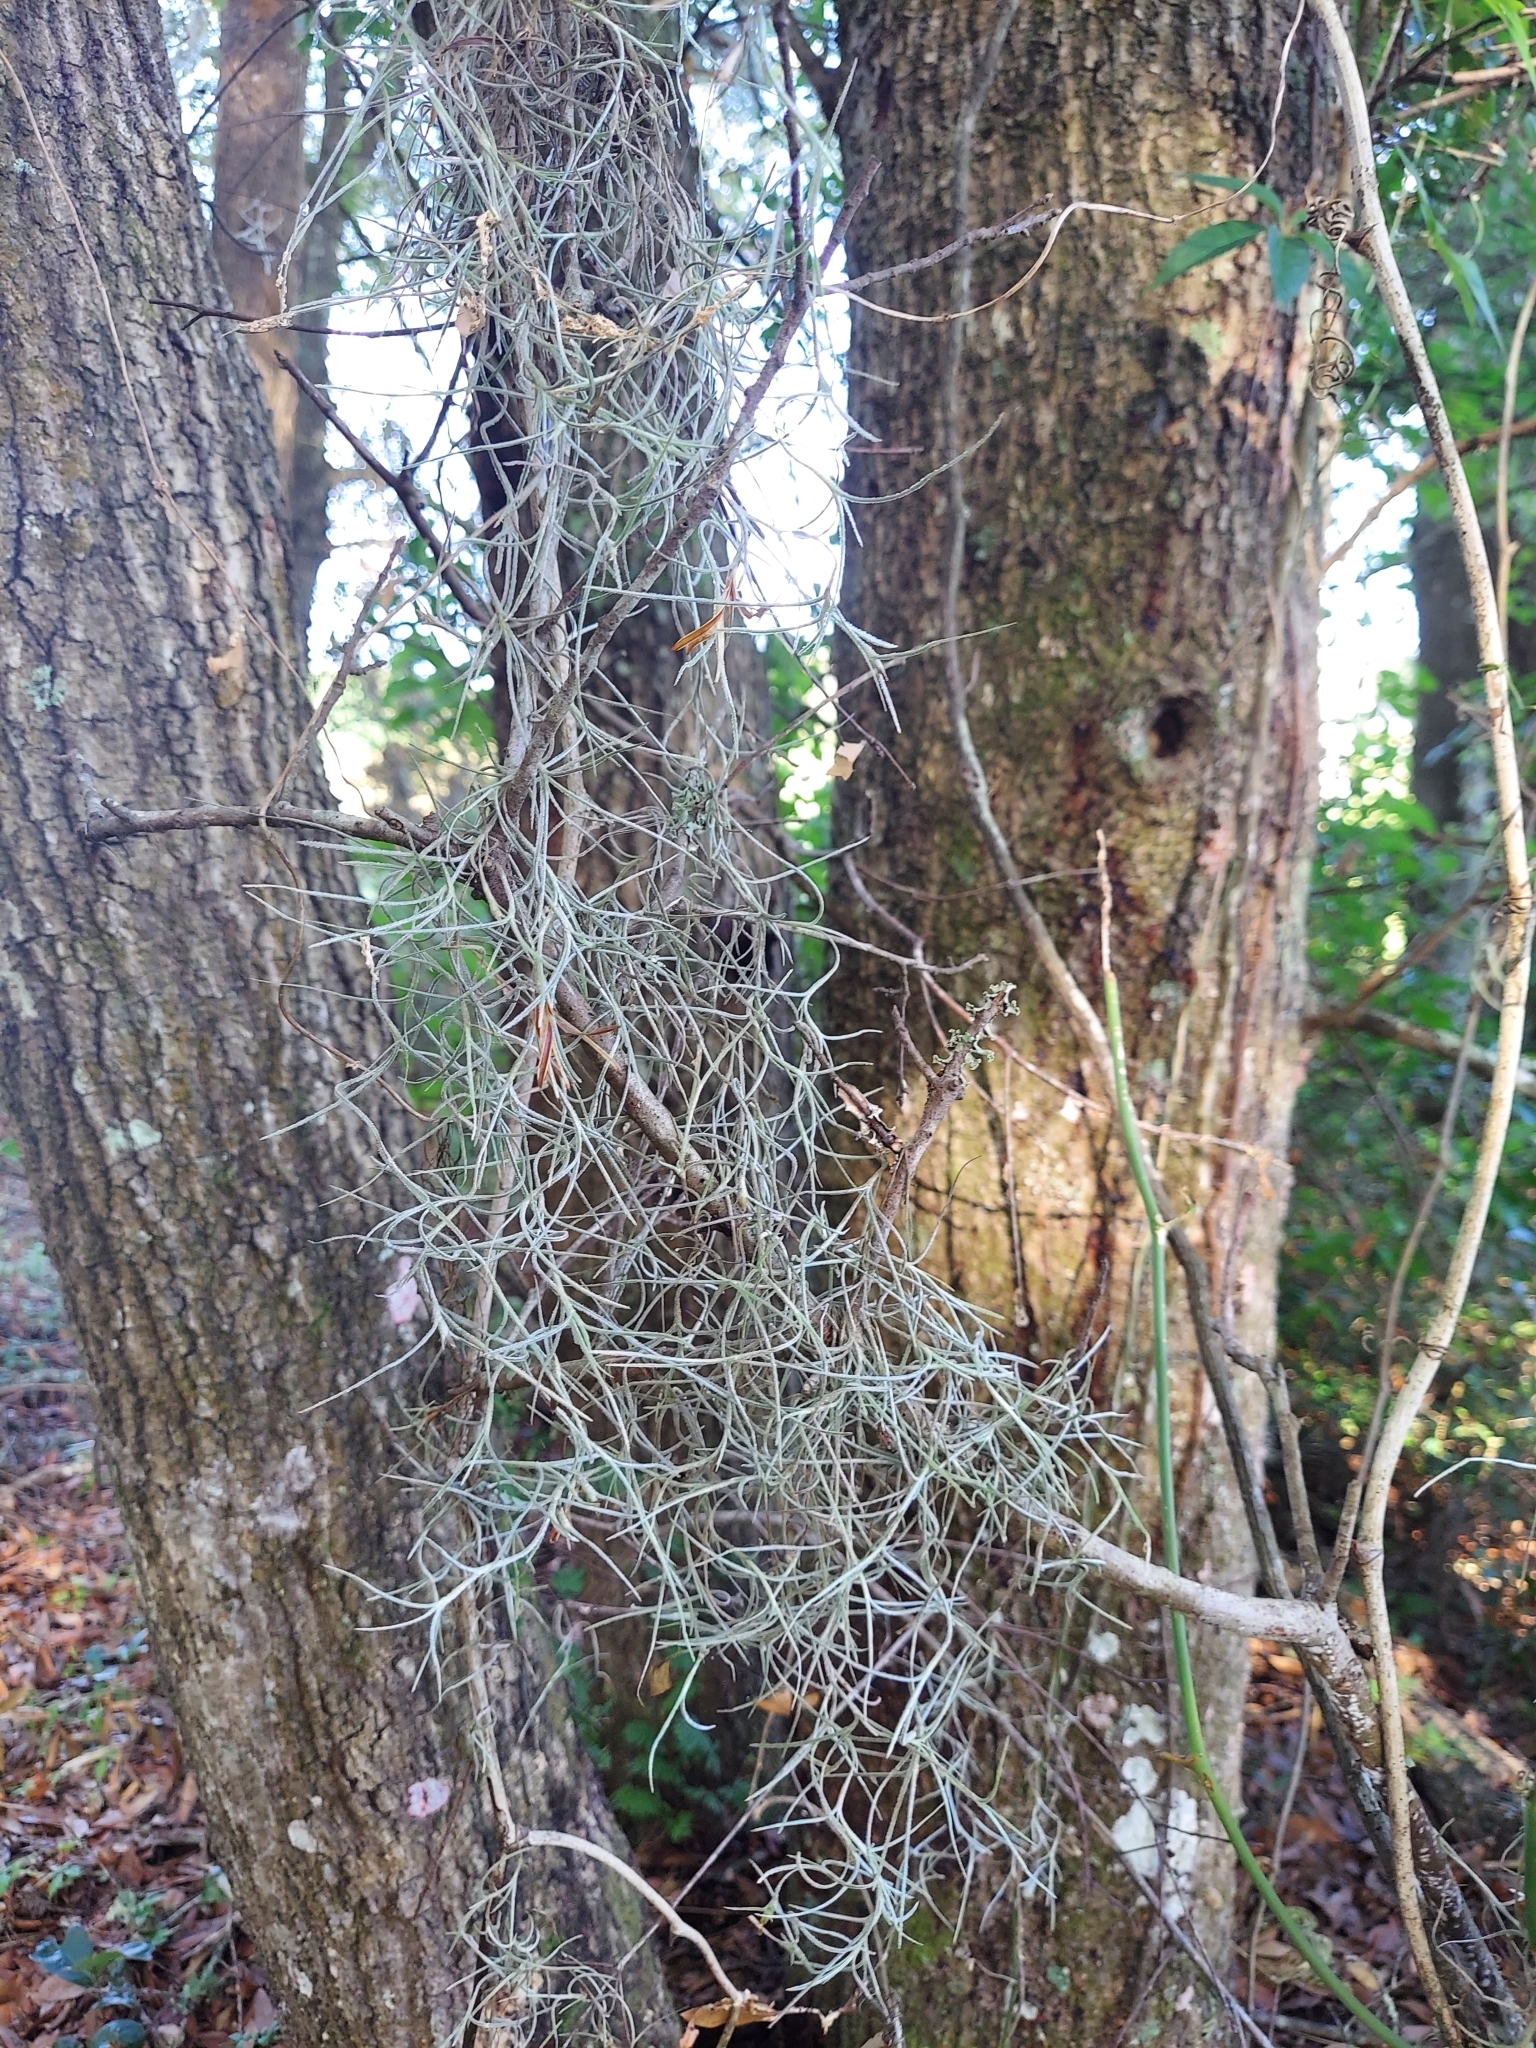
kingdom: Plantae
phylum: Tracheophyta
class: Liliopsida
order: Poales
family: Bromeliaceae
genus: Tillandsia
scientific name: Tillandsia usneoides
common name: Spanish moss
